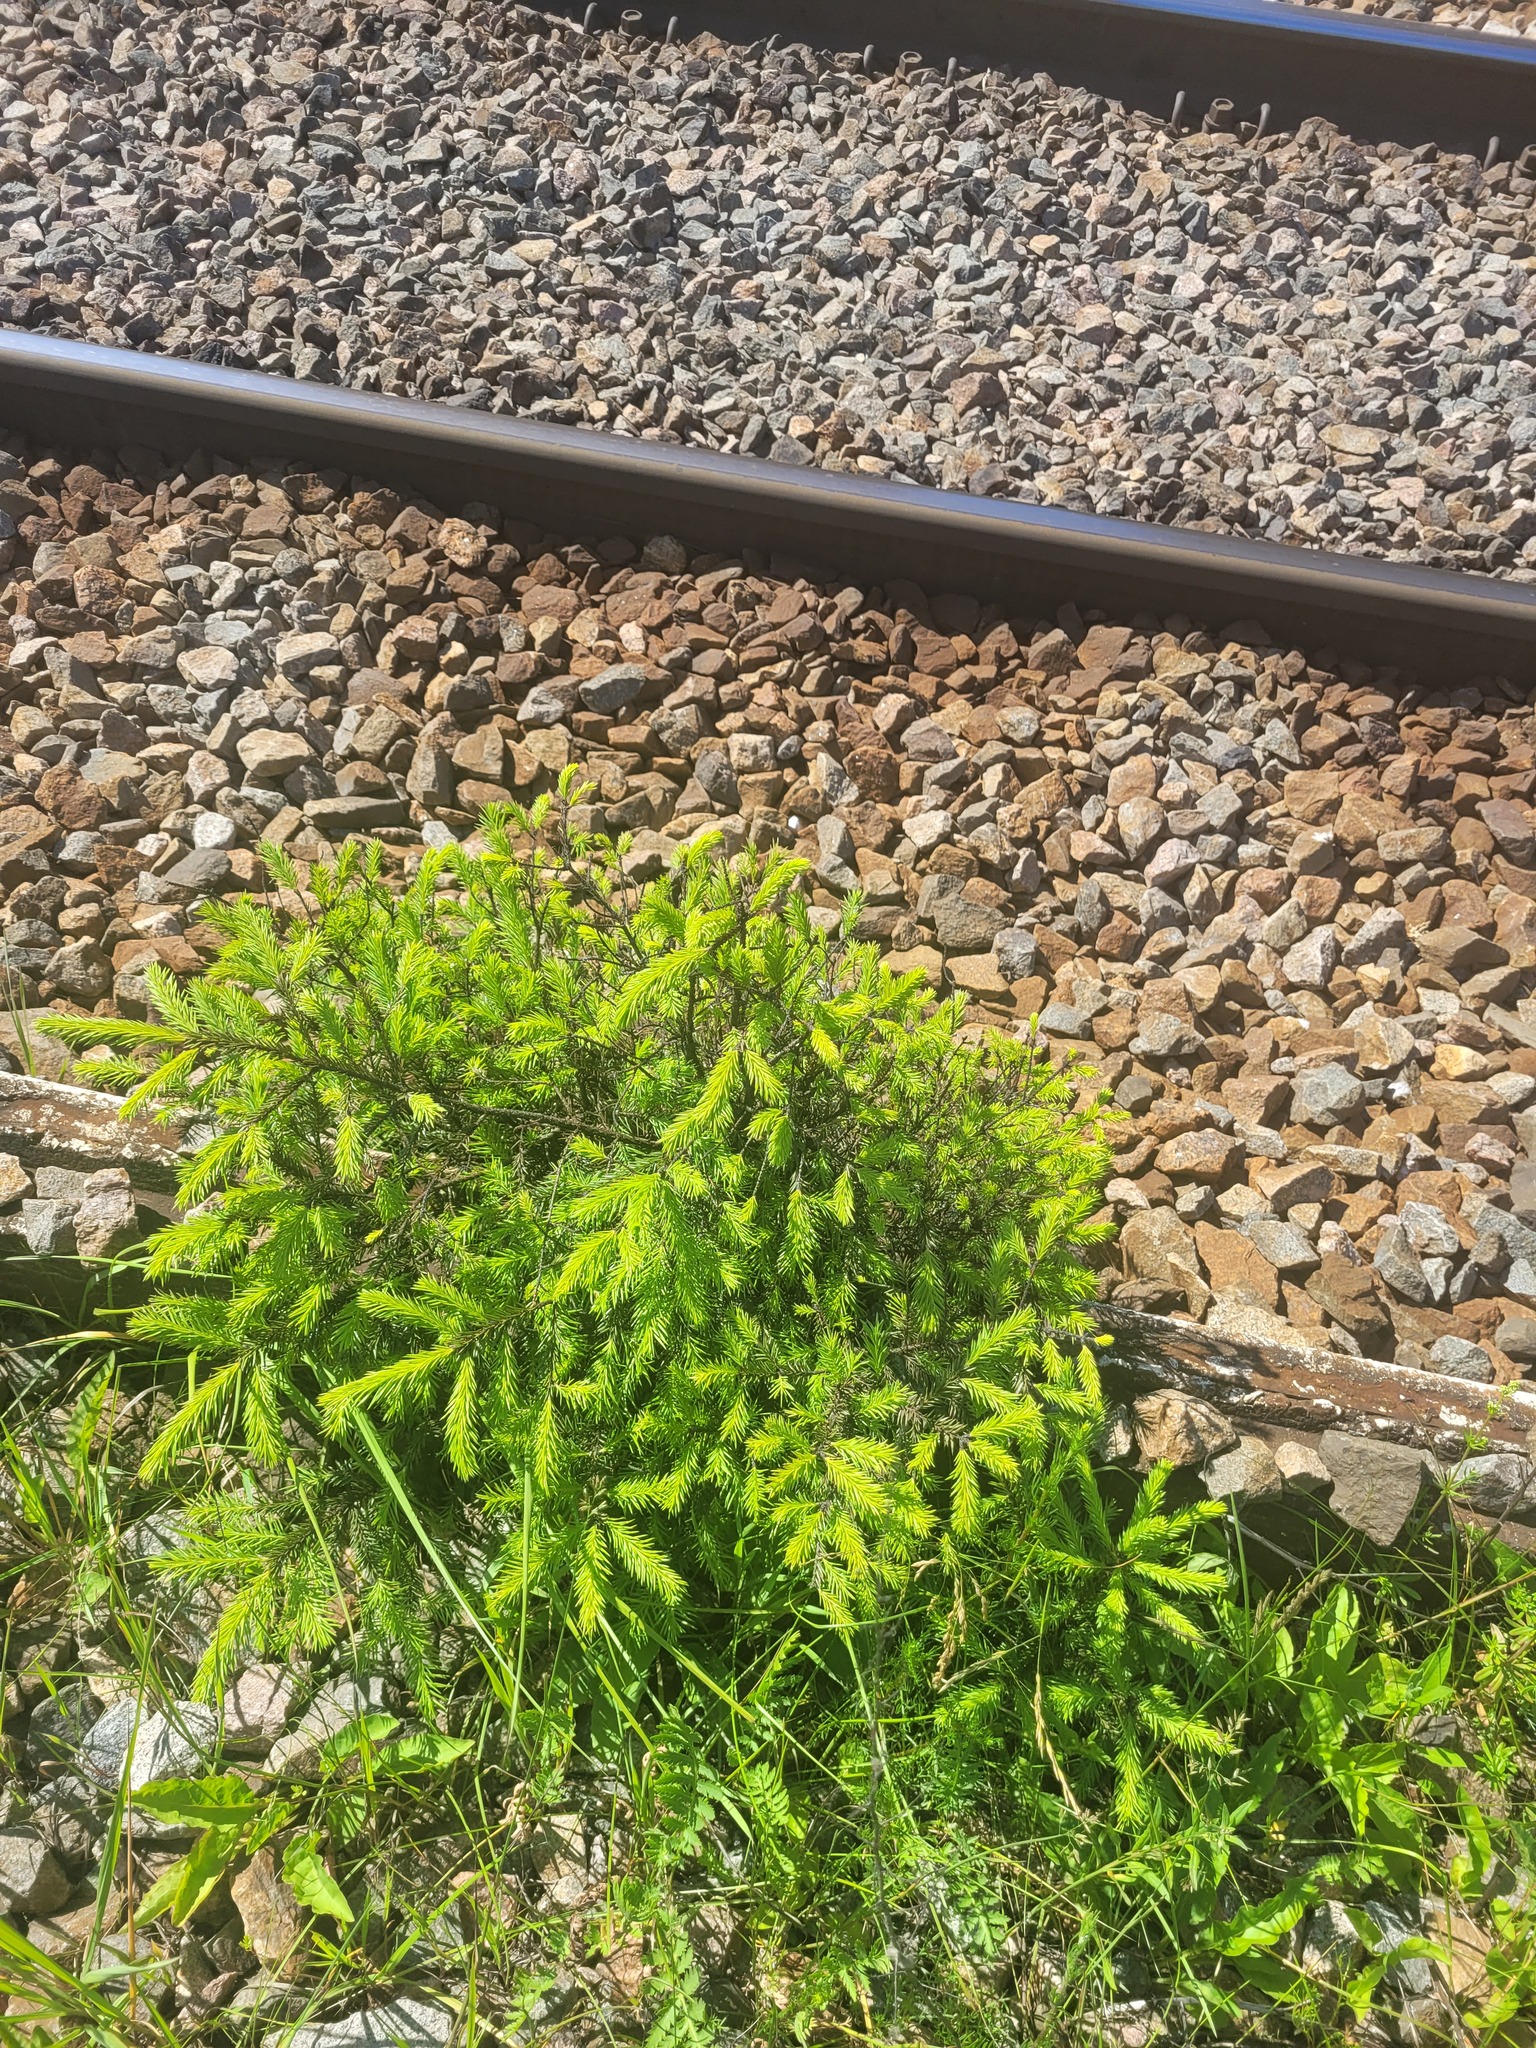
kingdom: Plantae
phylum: Tracheophyta
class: Pinopsida
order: Pinales
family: Pinaceae
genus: Picea
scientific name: Picea abies
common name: Norway spruce
